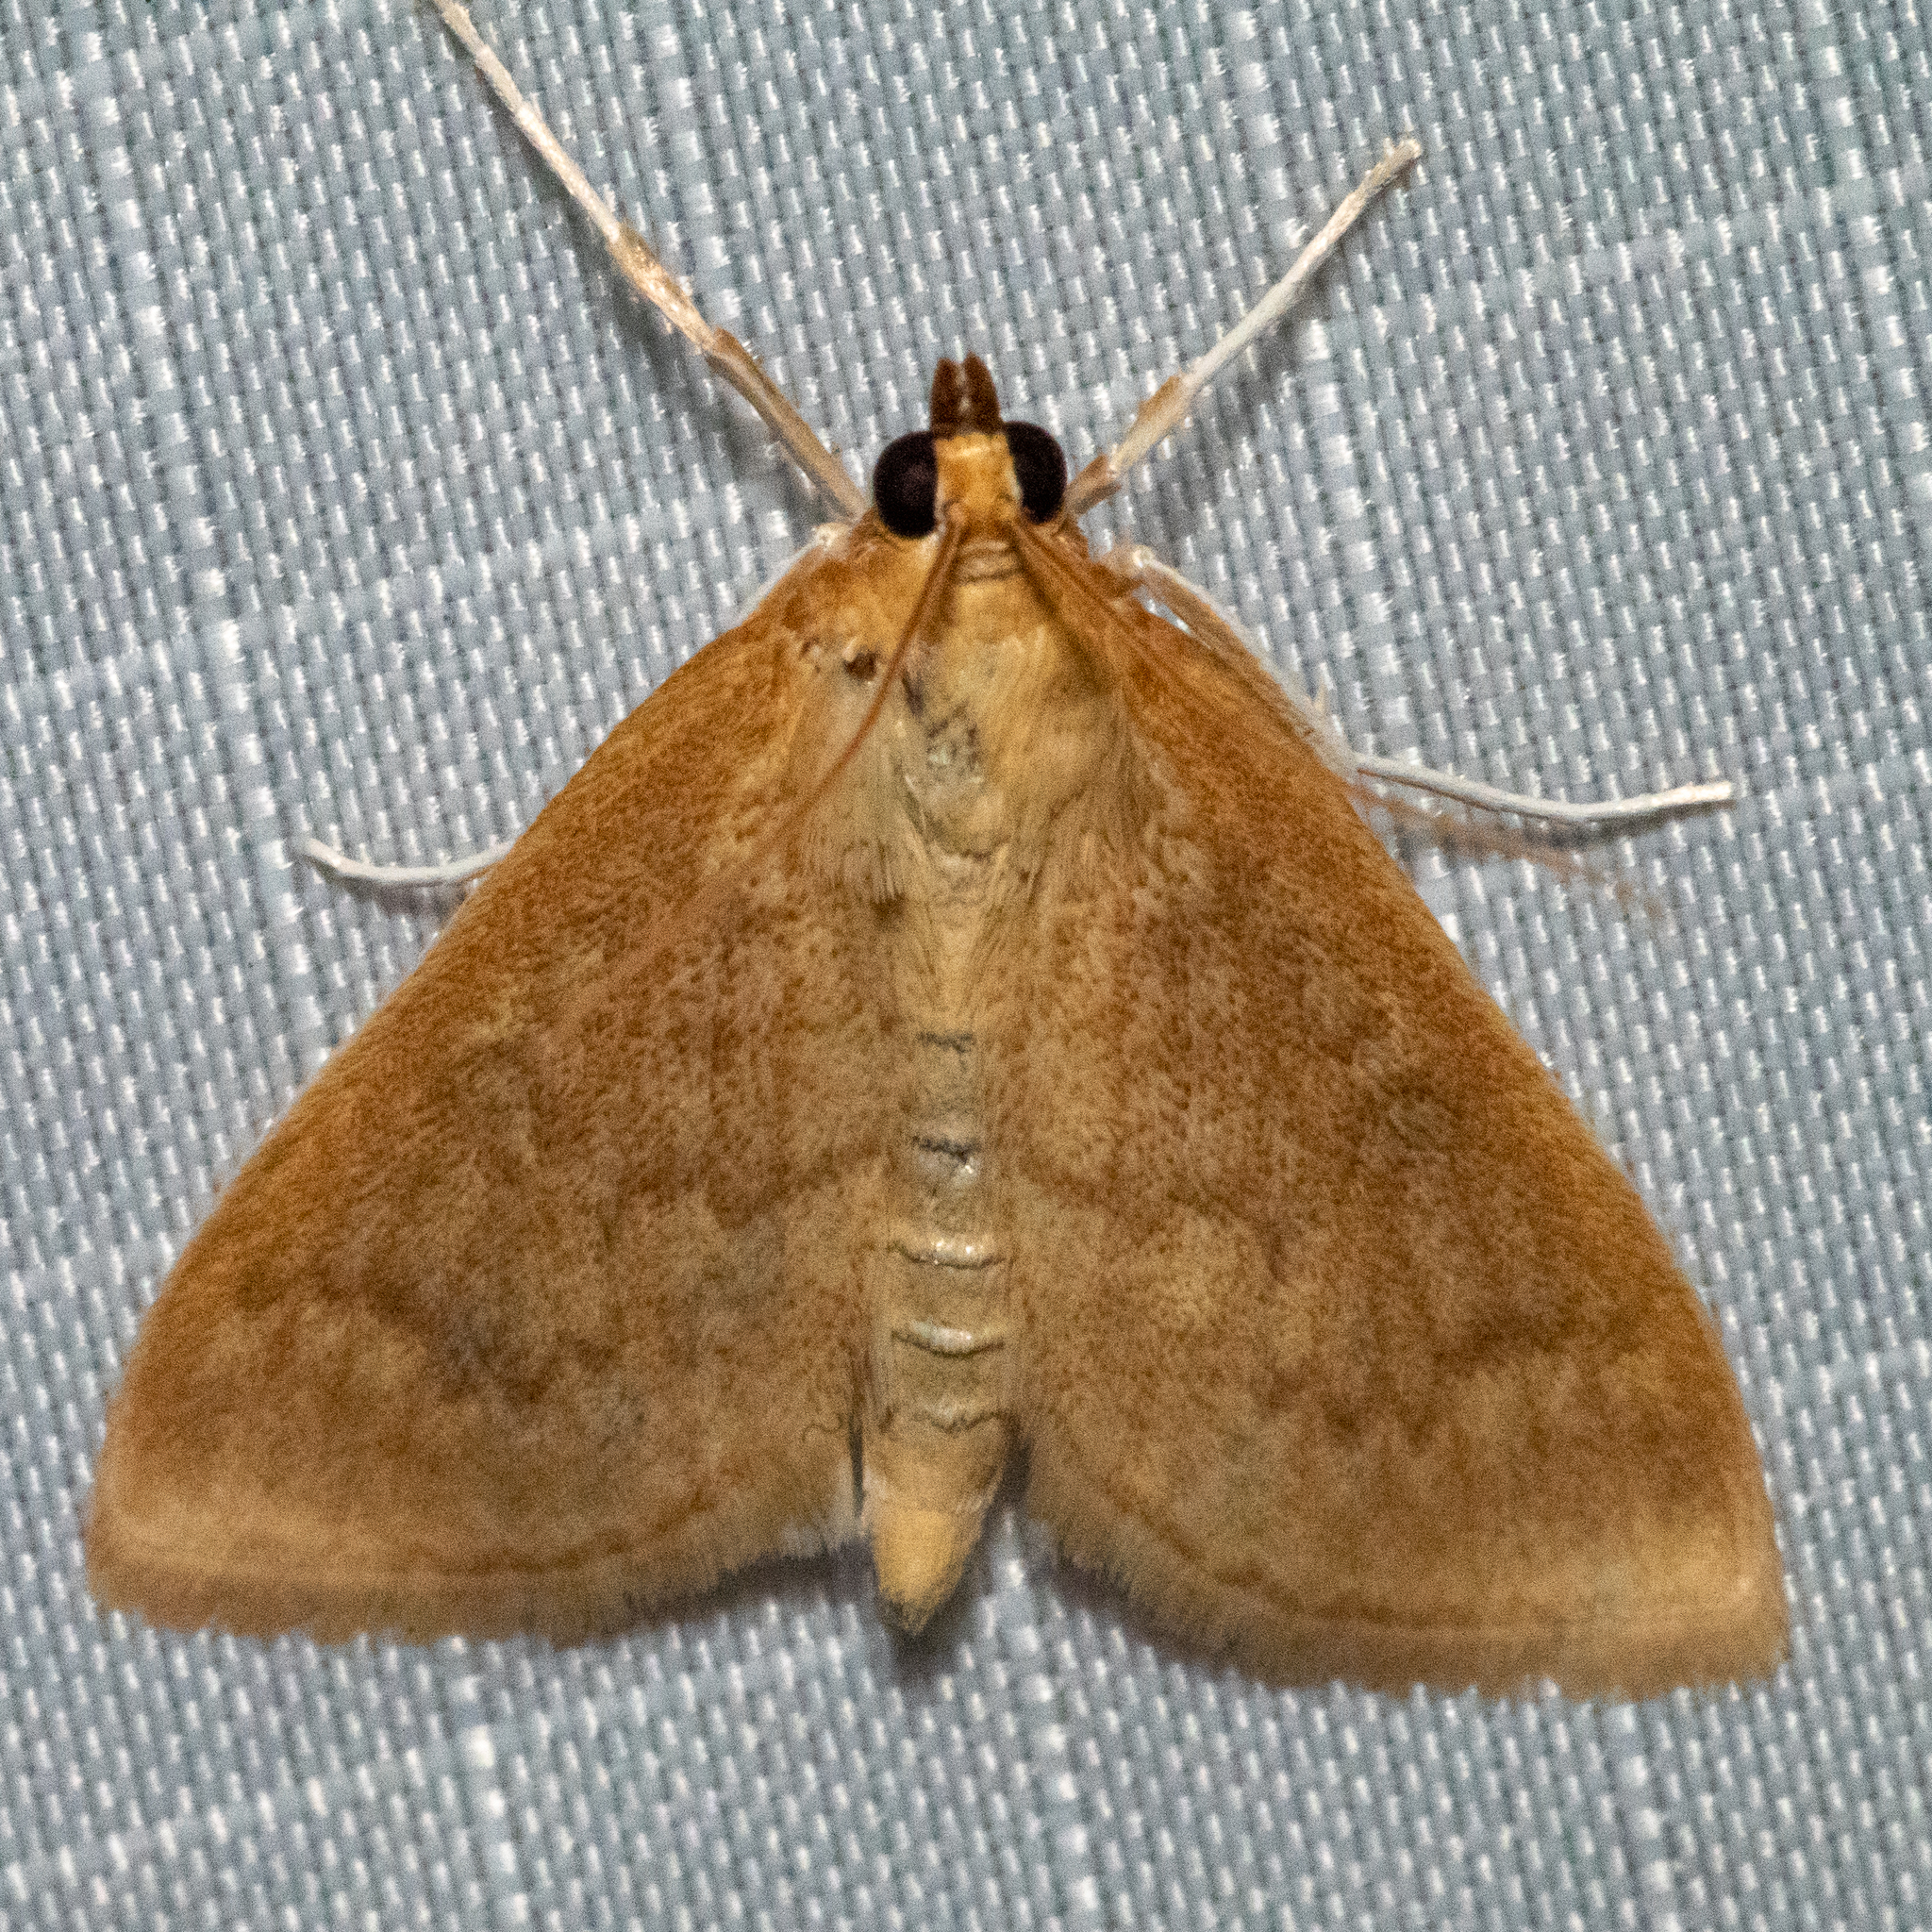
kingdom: Animalia
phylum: Arthropoda
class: Insecta
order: Lepidoptera
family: Crambidae
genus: Anania
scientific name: Anania Framinghamia helvalis
